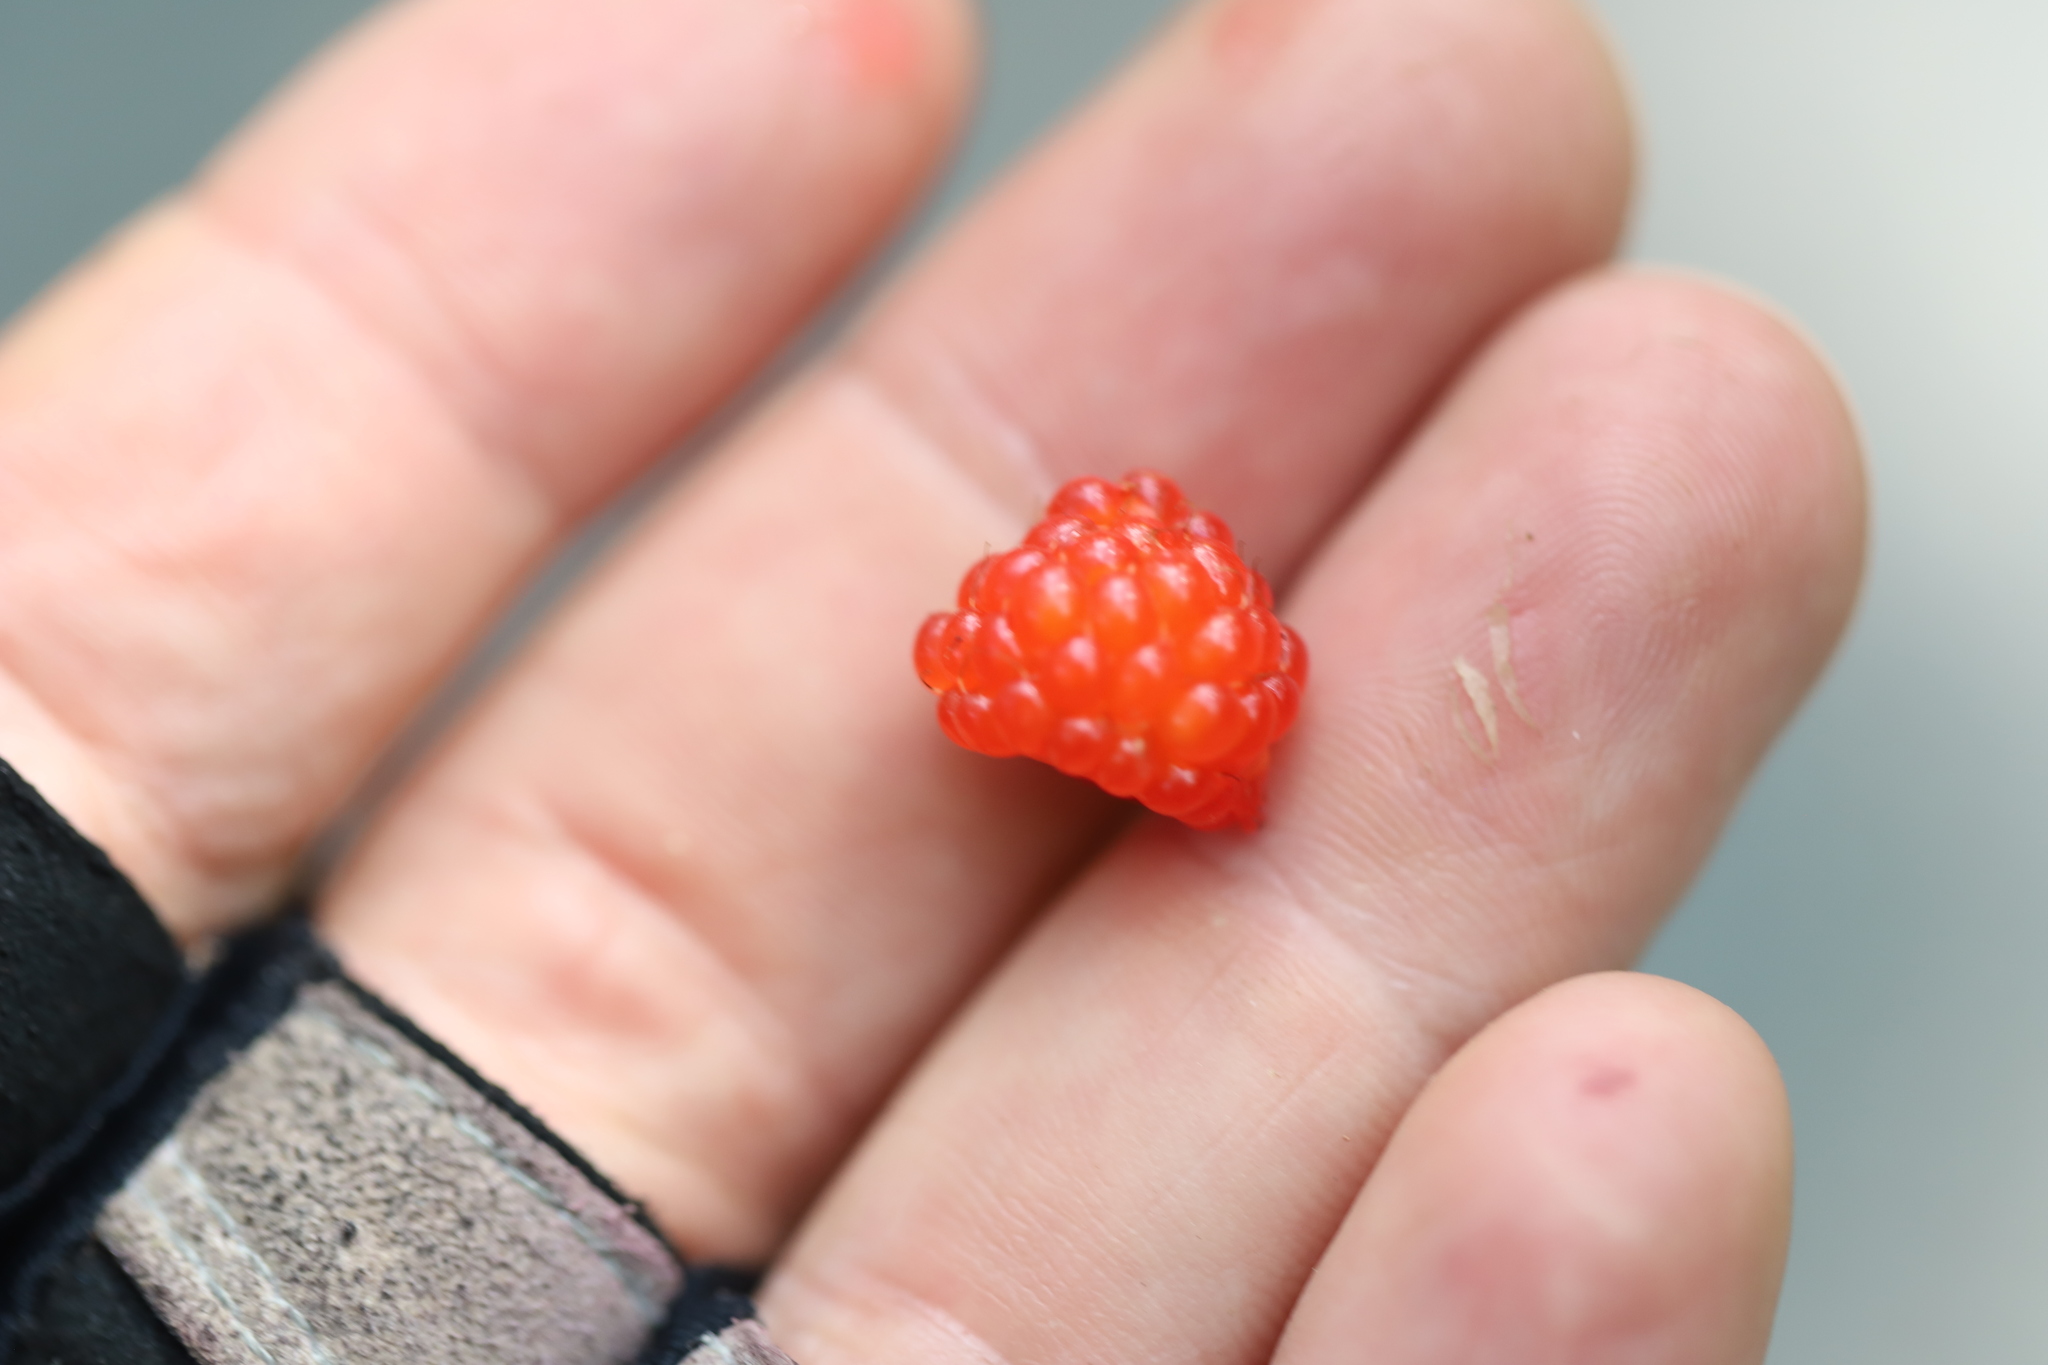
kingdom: Plantae
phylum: Tracheophyta
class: Magnoliopsida
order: Rosales
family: Rosaceae
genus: Rubus
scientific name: Rubus phoenicolasius
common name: Japanese wineberry
